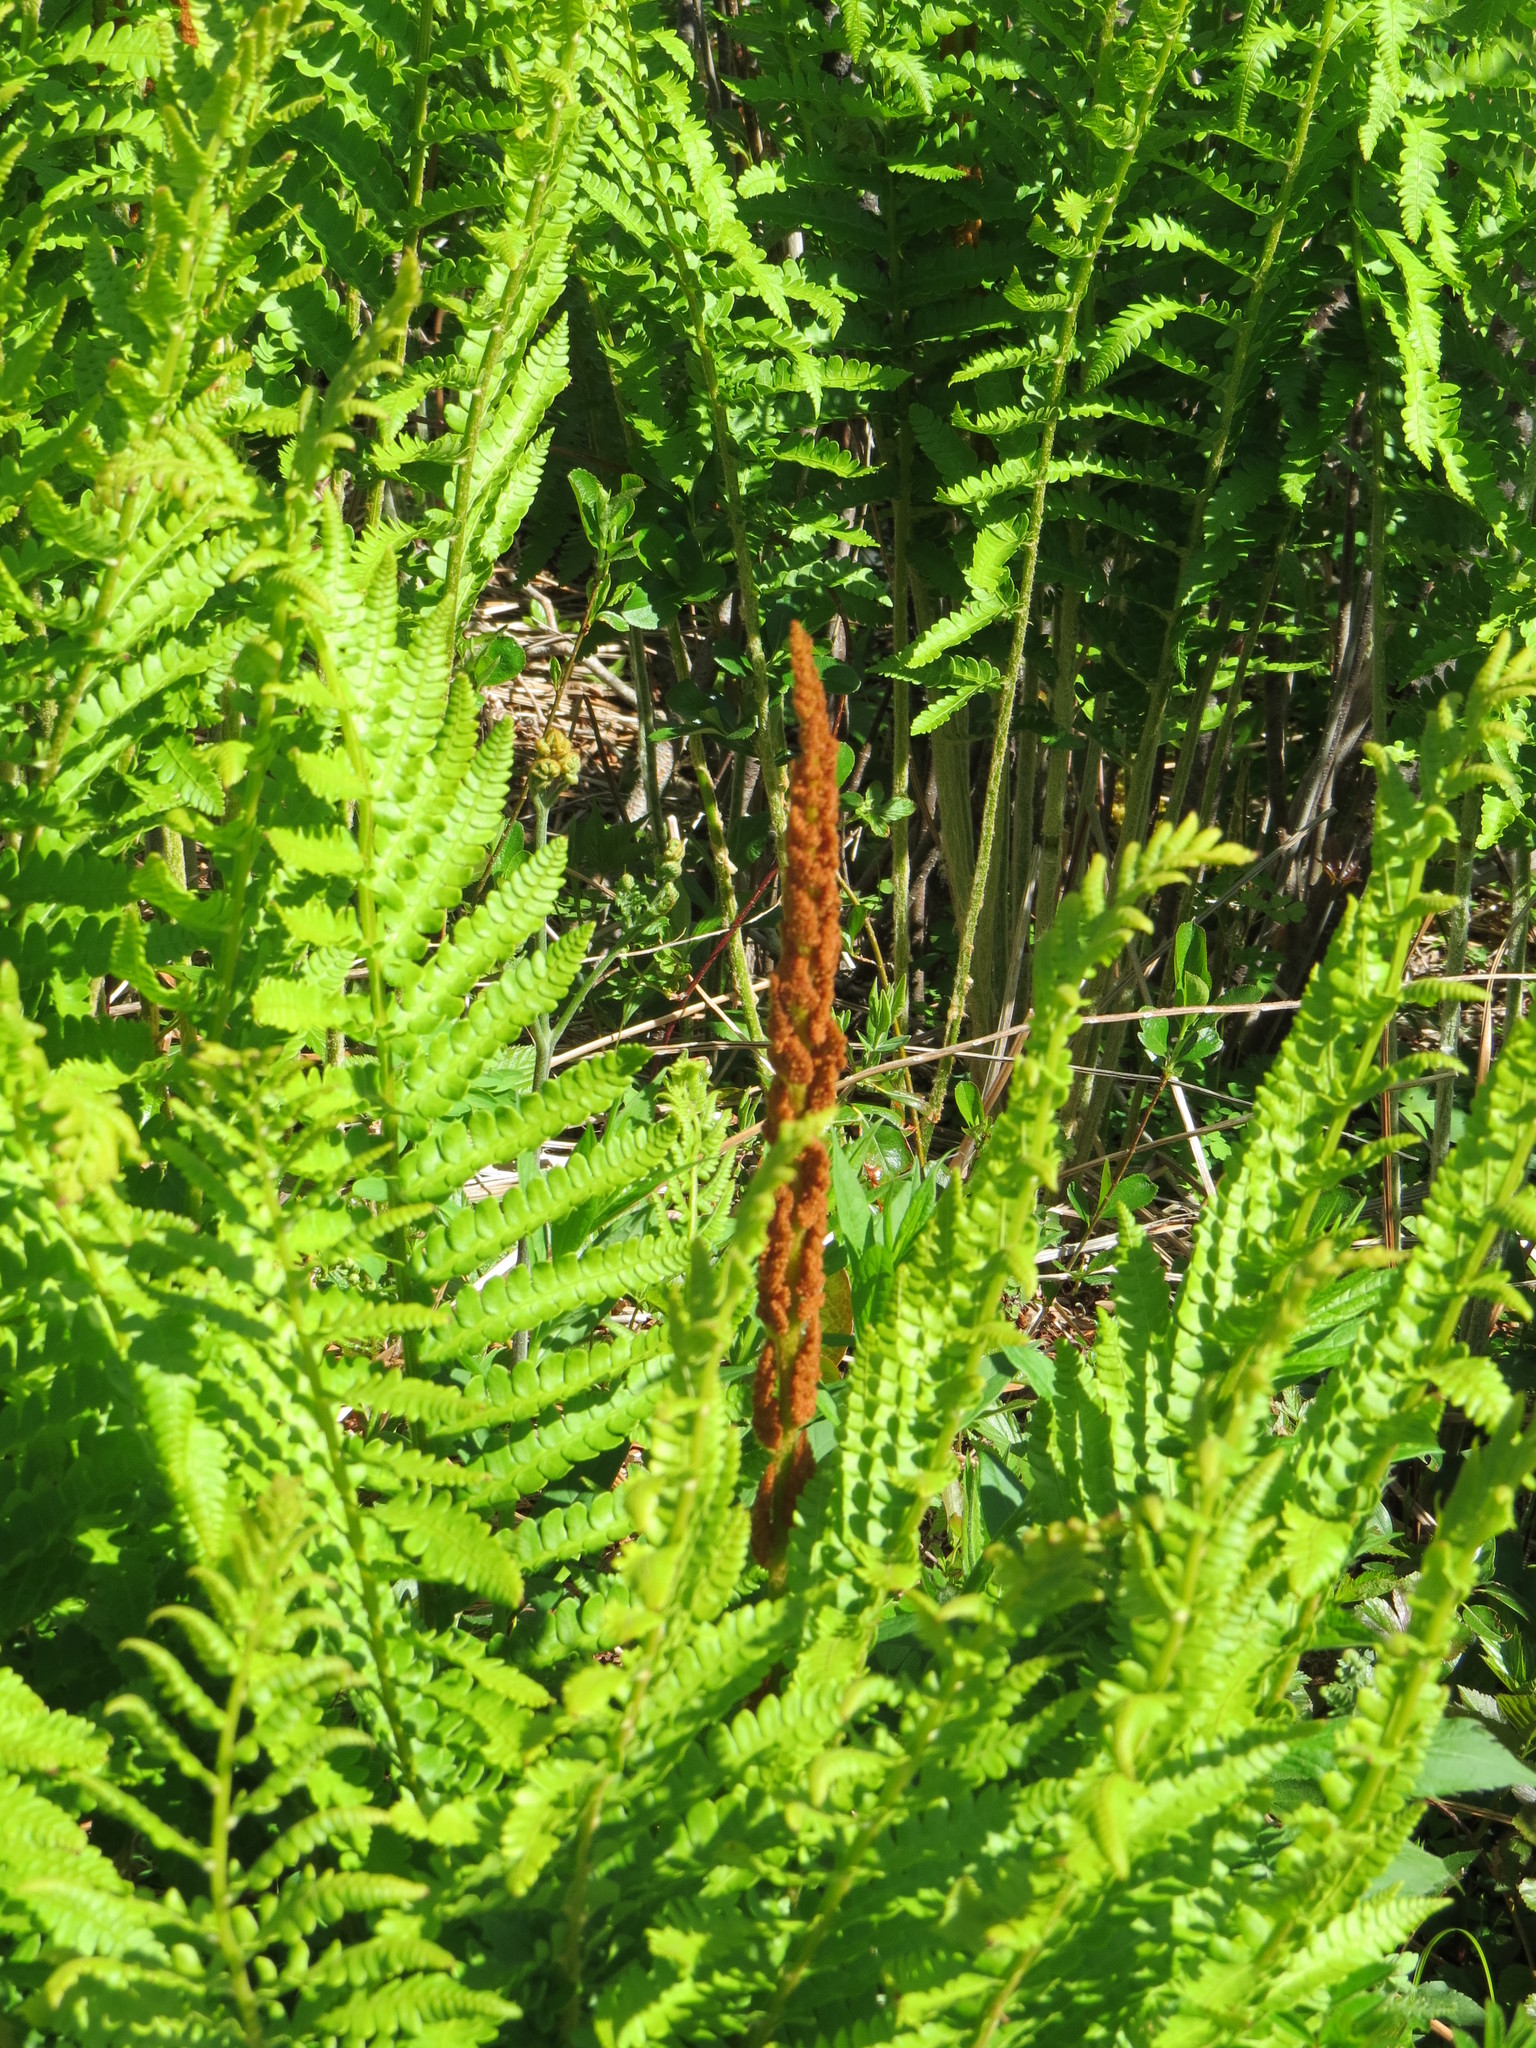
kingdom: Plantae
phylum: Tracheophyta
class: Polypodiopsida
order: Osmundales
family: Osmundaceae
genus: Osmundastrum
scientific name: Osmundastrum cinnamomeum
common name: Cinnamon fern
